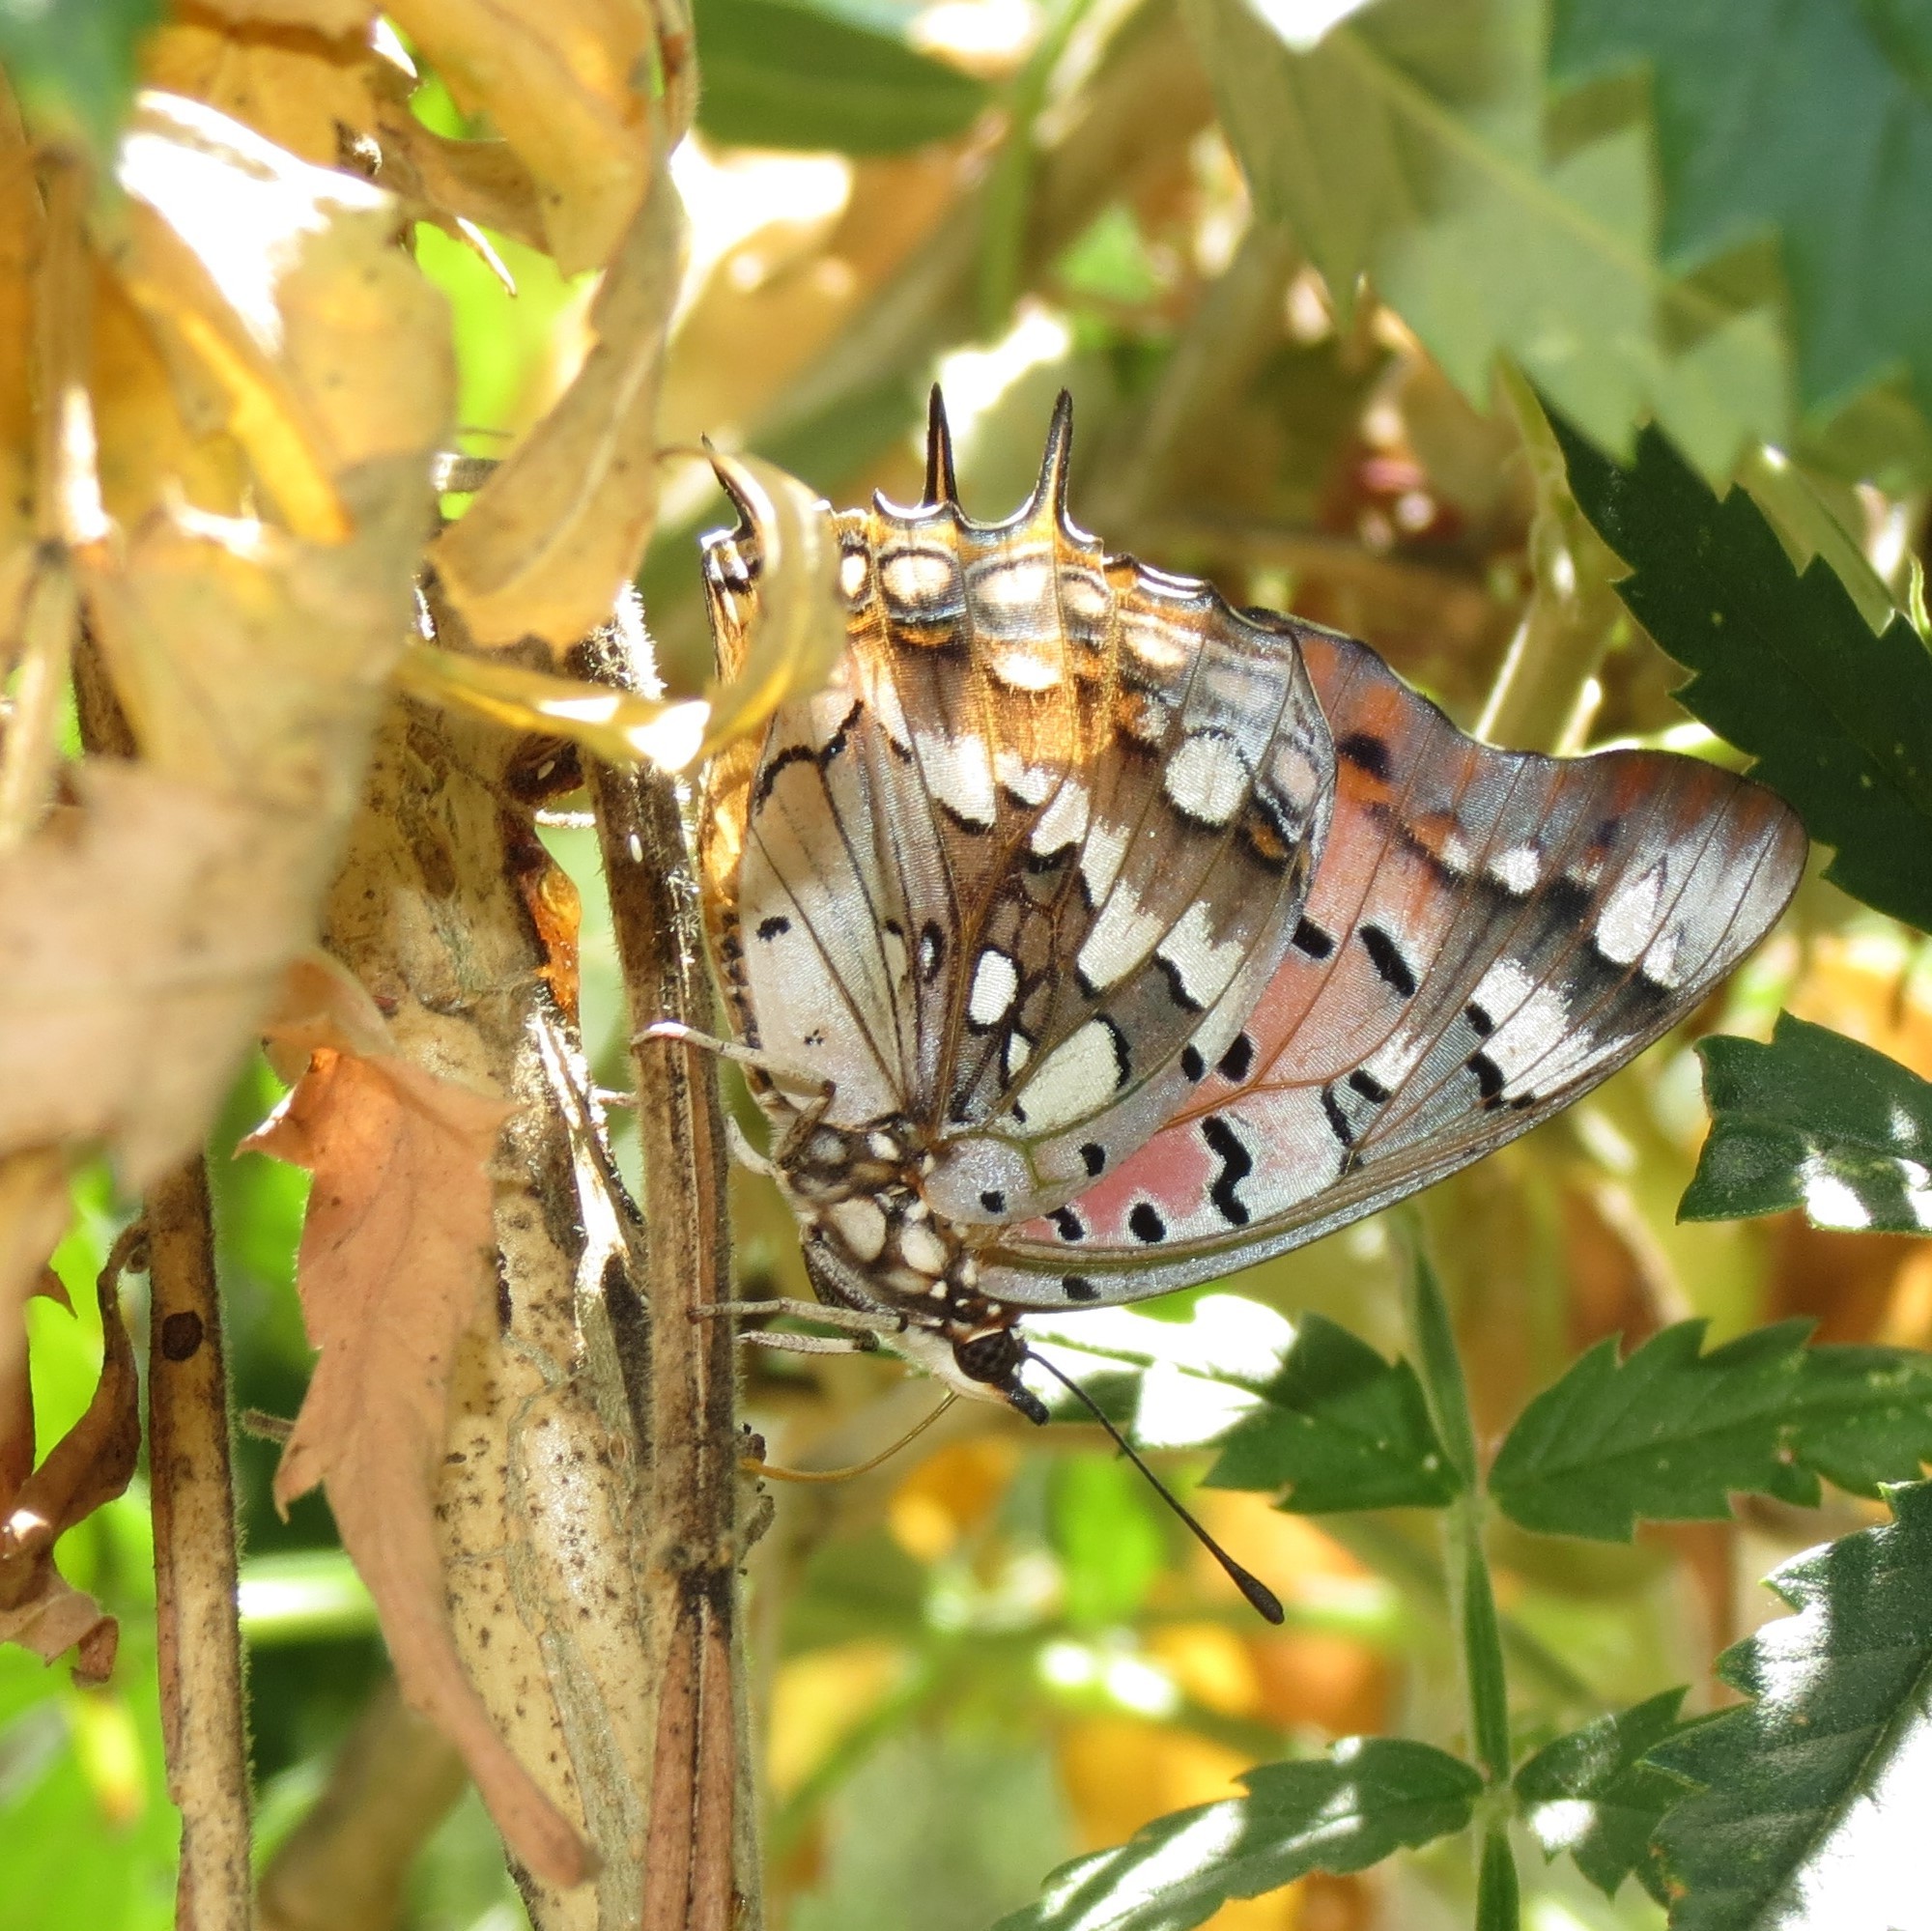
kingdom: Animalia
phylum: Arthropoda
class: Insecta
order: Lepidoptera
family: Nymphalidae
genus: Charaxes
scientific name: Charaxes jahlusa
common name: Pearl-spotted charaxes
